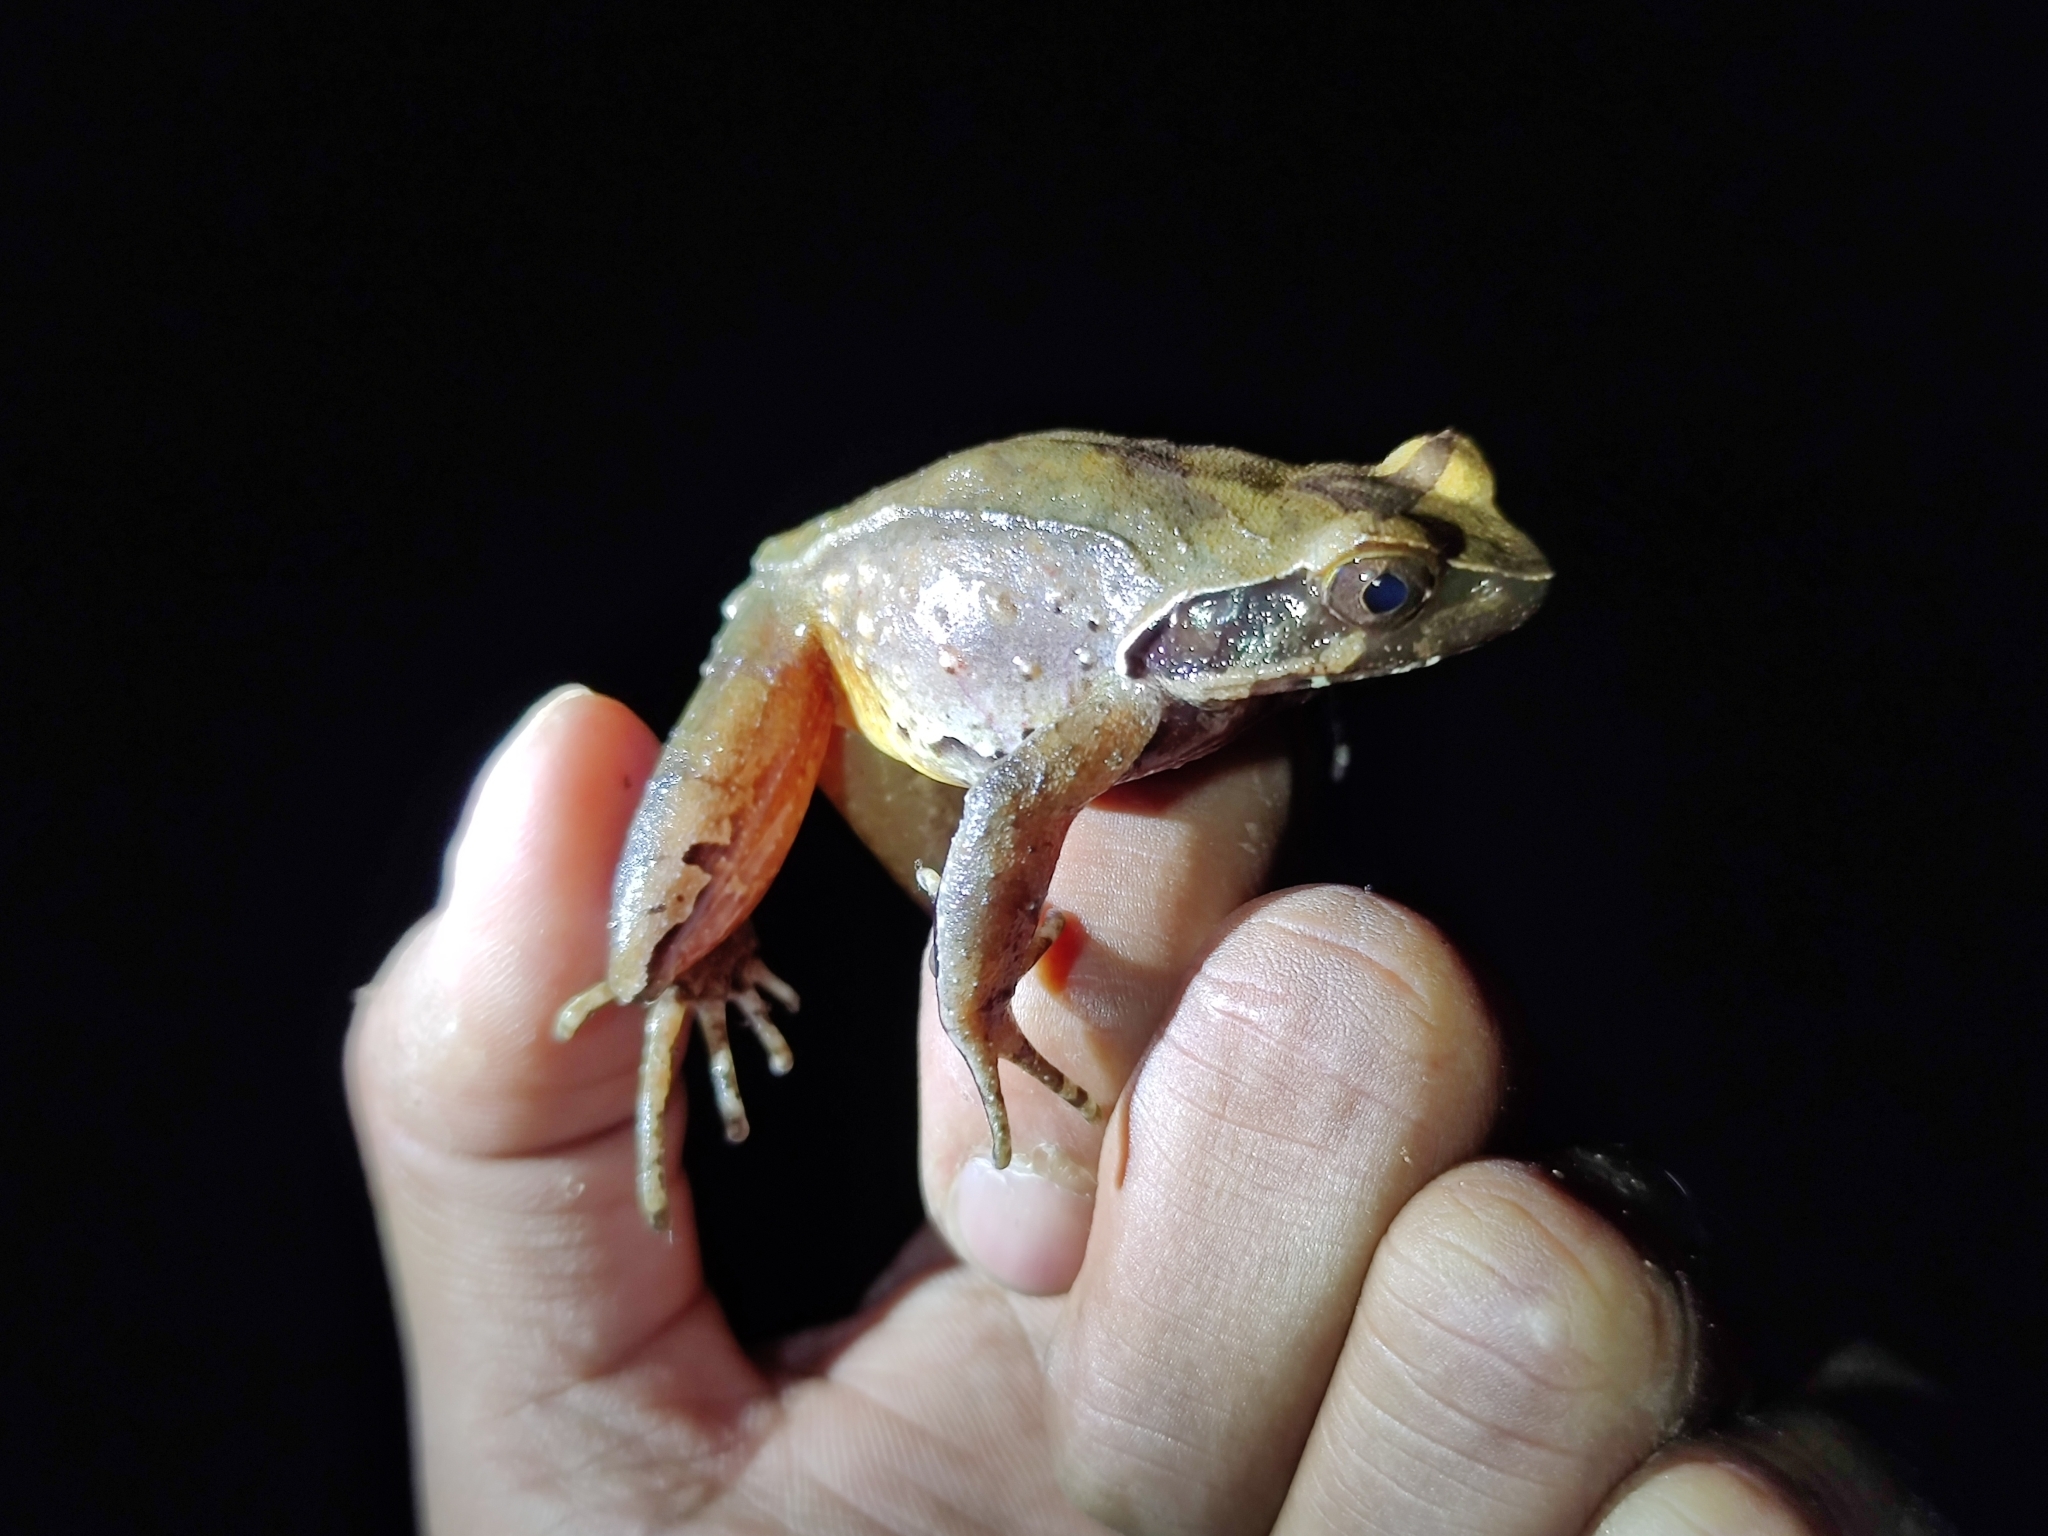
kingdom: Animalia
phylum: Chordata
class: Amphibia
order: Anura
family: Megophryidae
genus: Megophrys
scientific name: Megophrys
